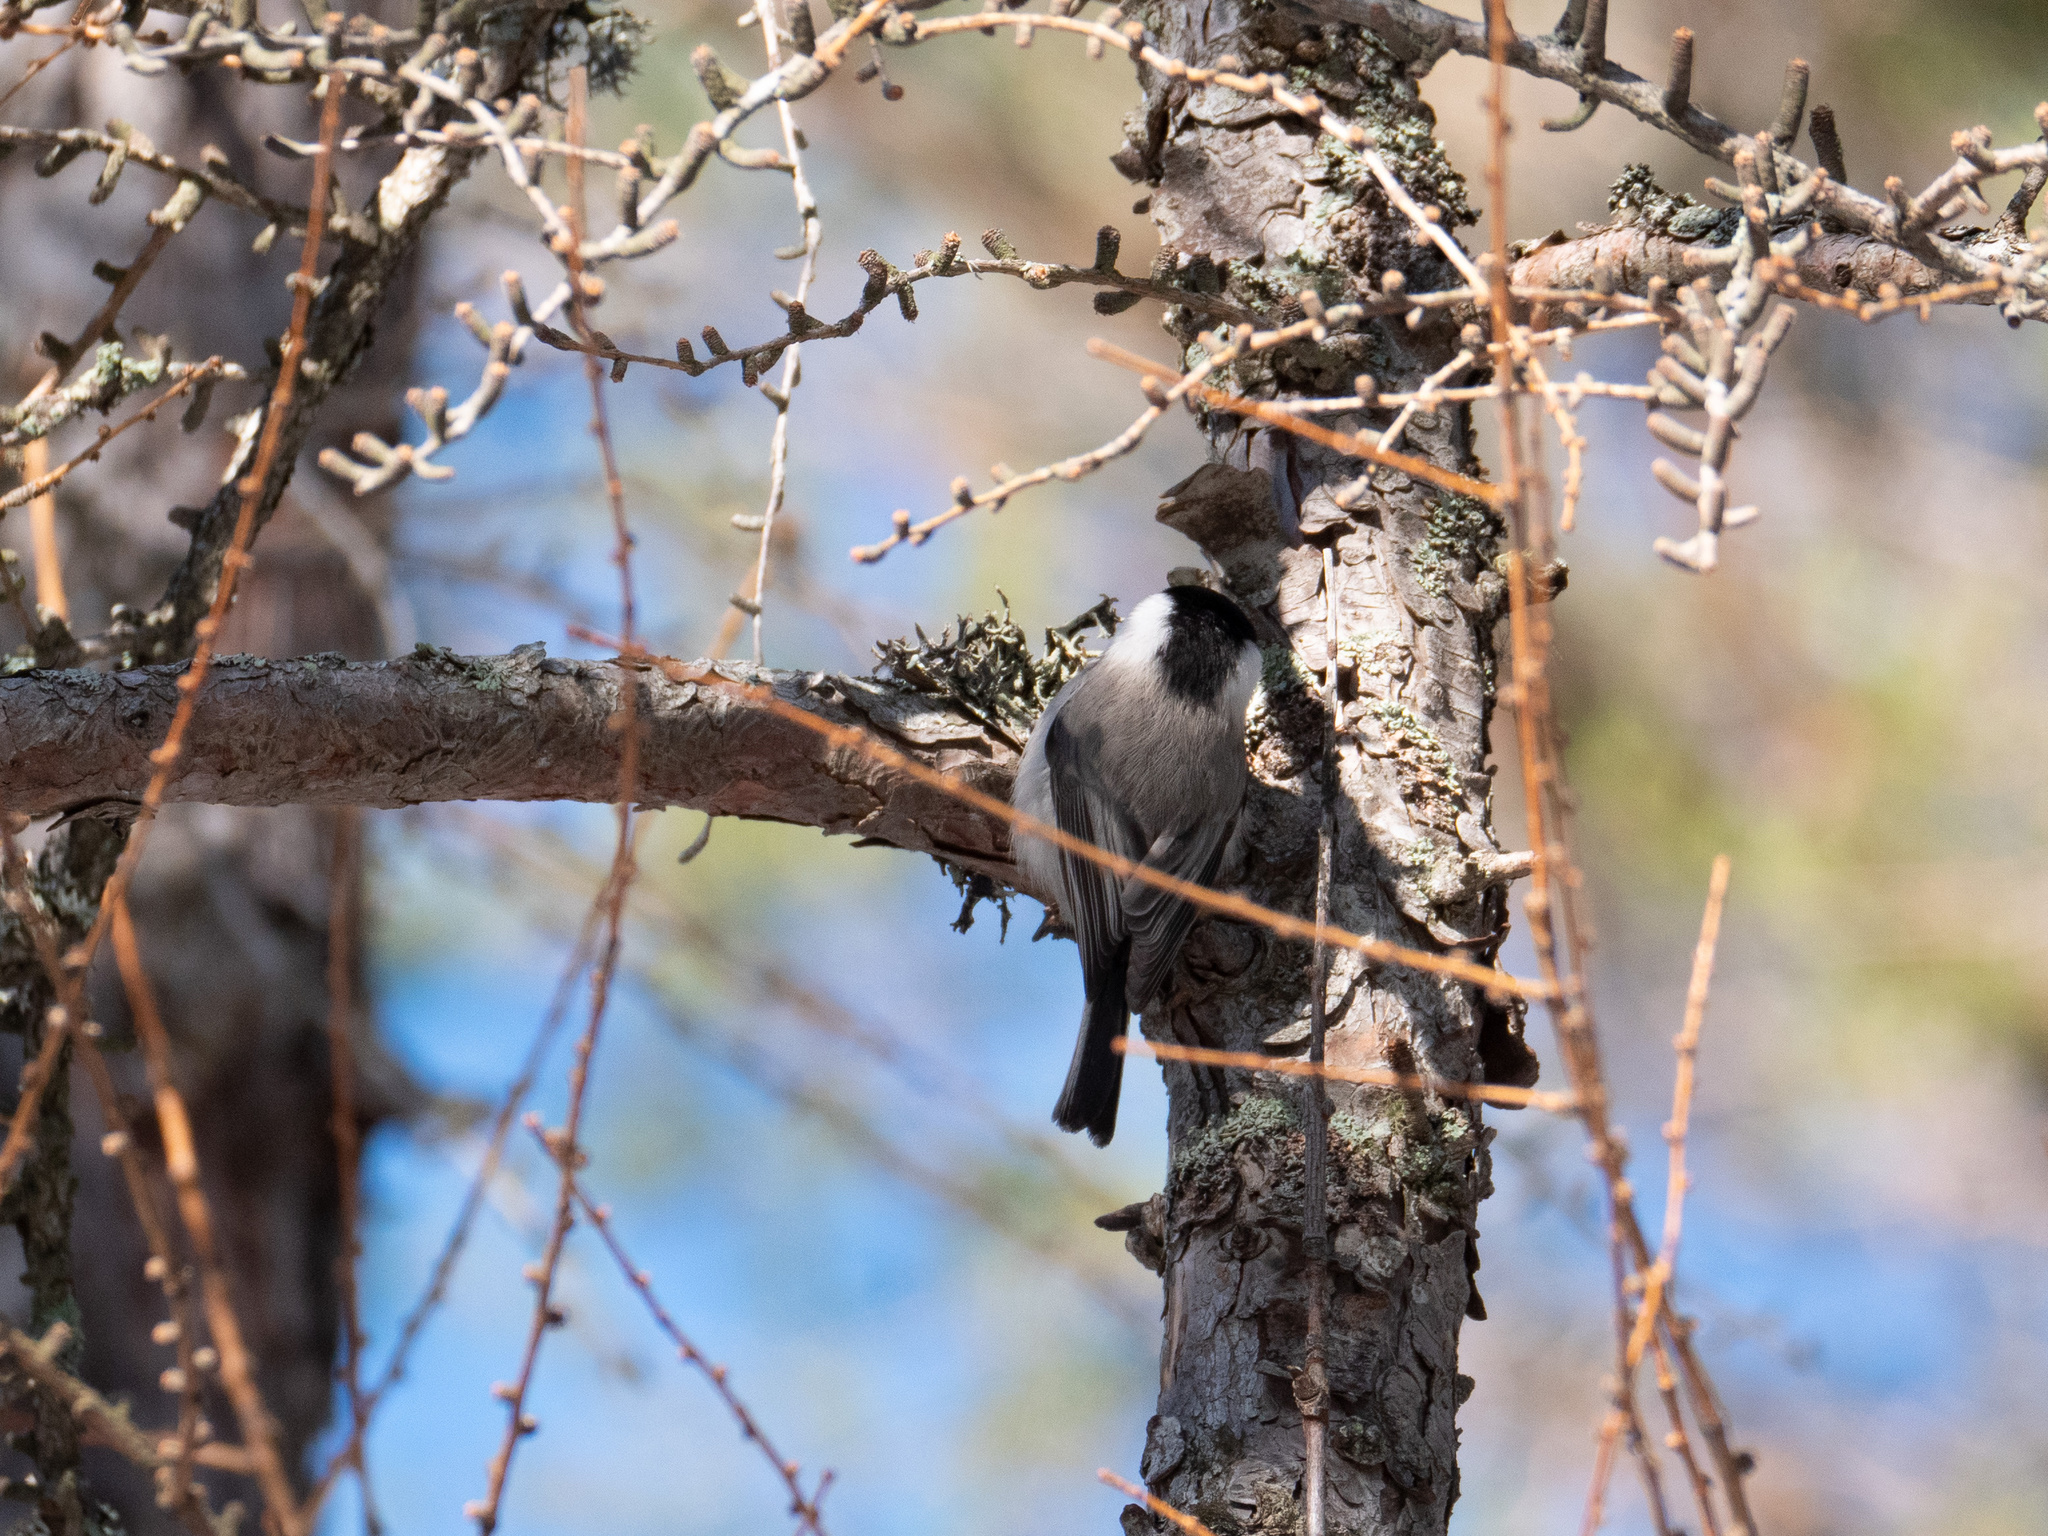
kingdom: Animalia
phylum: Chordata
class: Aves
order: Passeriformes
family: Paridae
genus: Poecile
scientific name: Poecile montanus
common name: Willow tit
